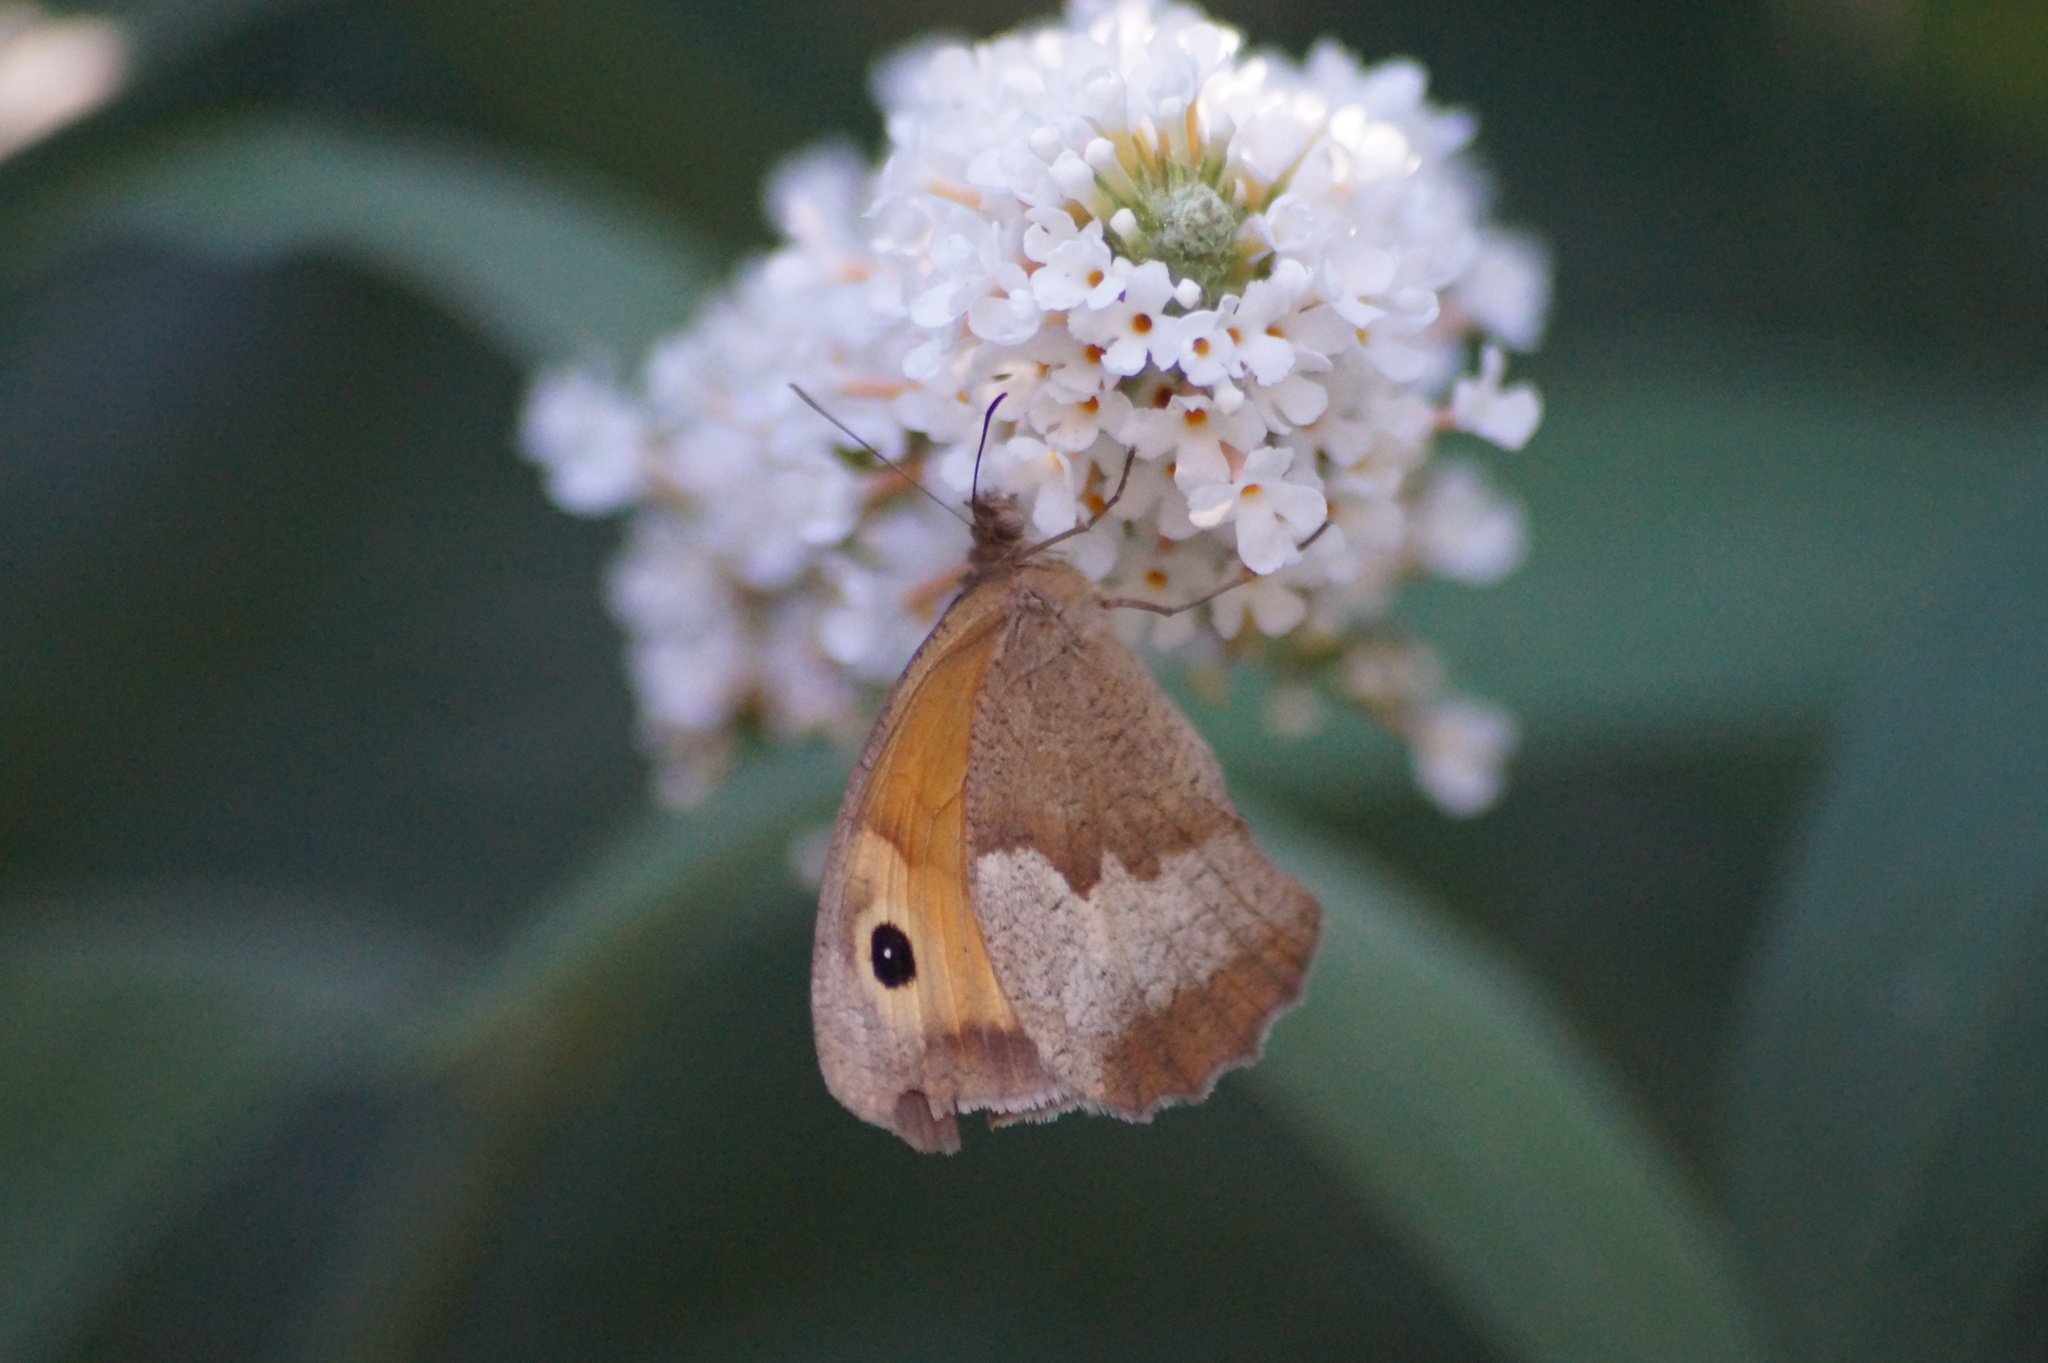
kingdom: Animalia
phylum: Arthropoda
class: Insecta
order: Lepidoptera
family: Nymphalidae
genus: Maniola
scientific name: Maniola jurtina
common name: Meadow brown
